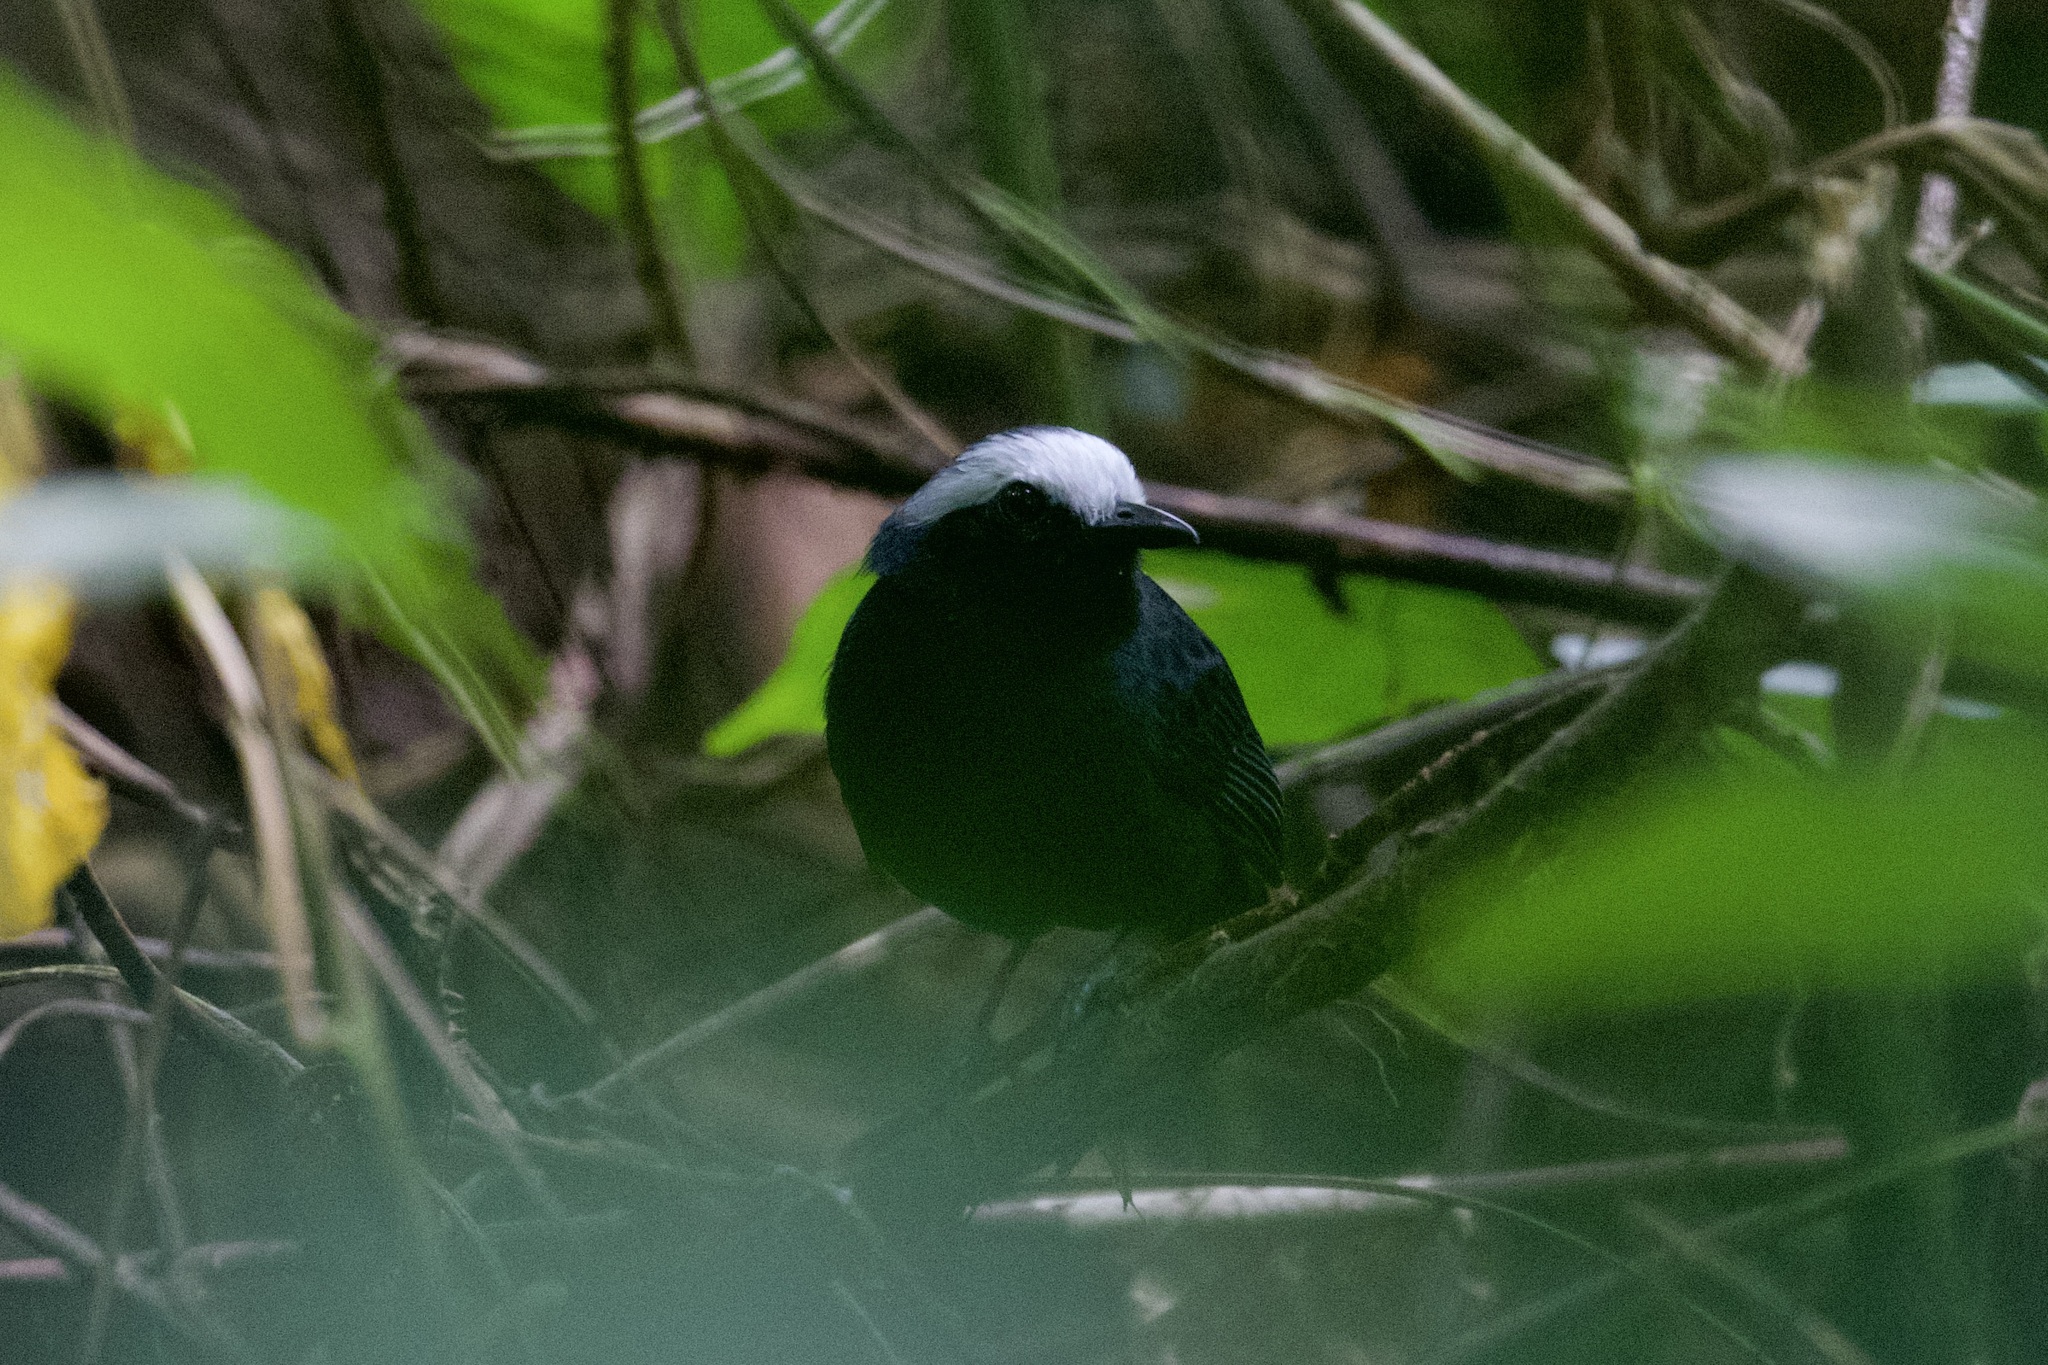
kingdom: Animalia
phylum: Chordata
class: Aves
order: Passeriformes
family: Thamnophilidae
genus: Myrmoborus
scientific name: Myrmoborus leucophrys
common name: White-browed antbird
